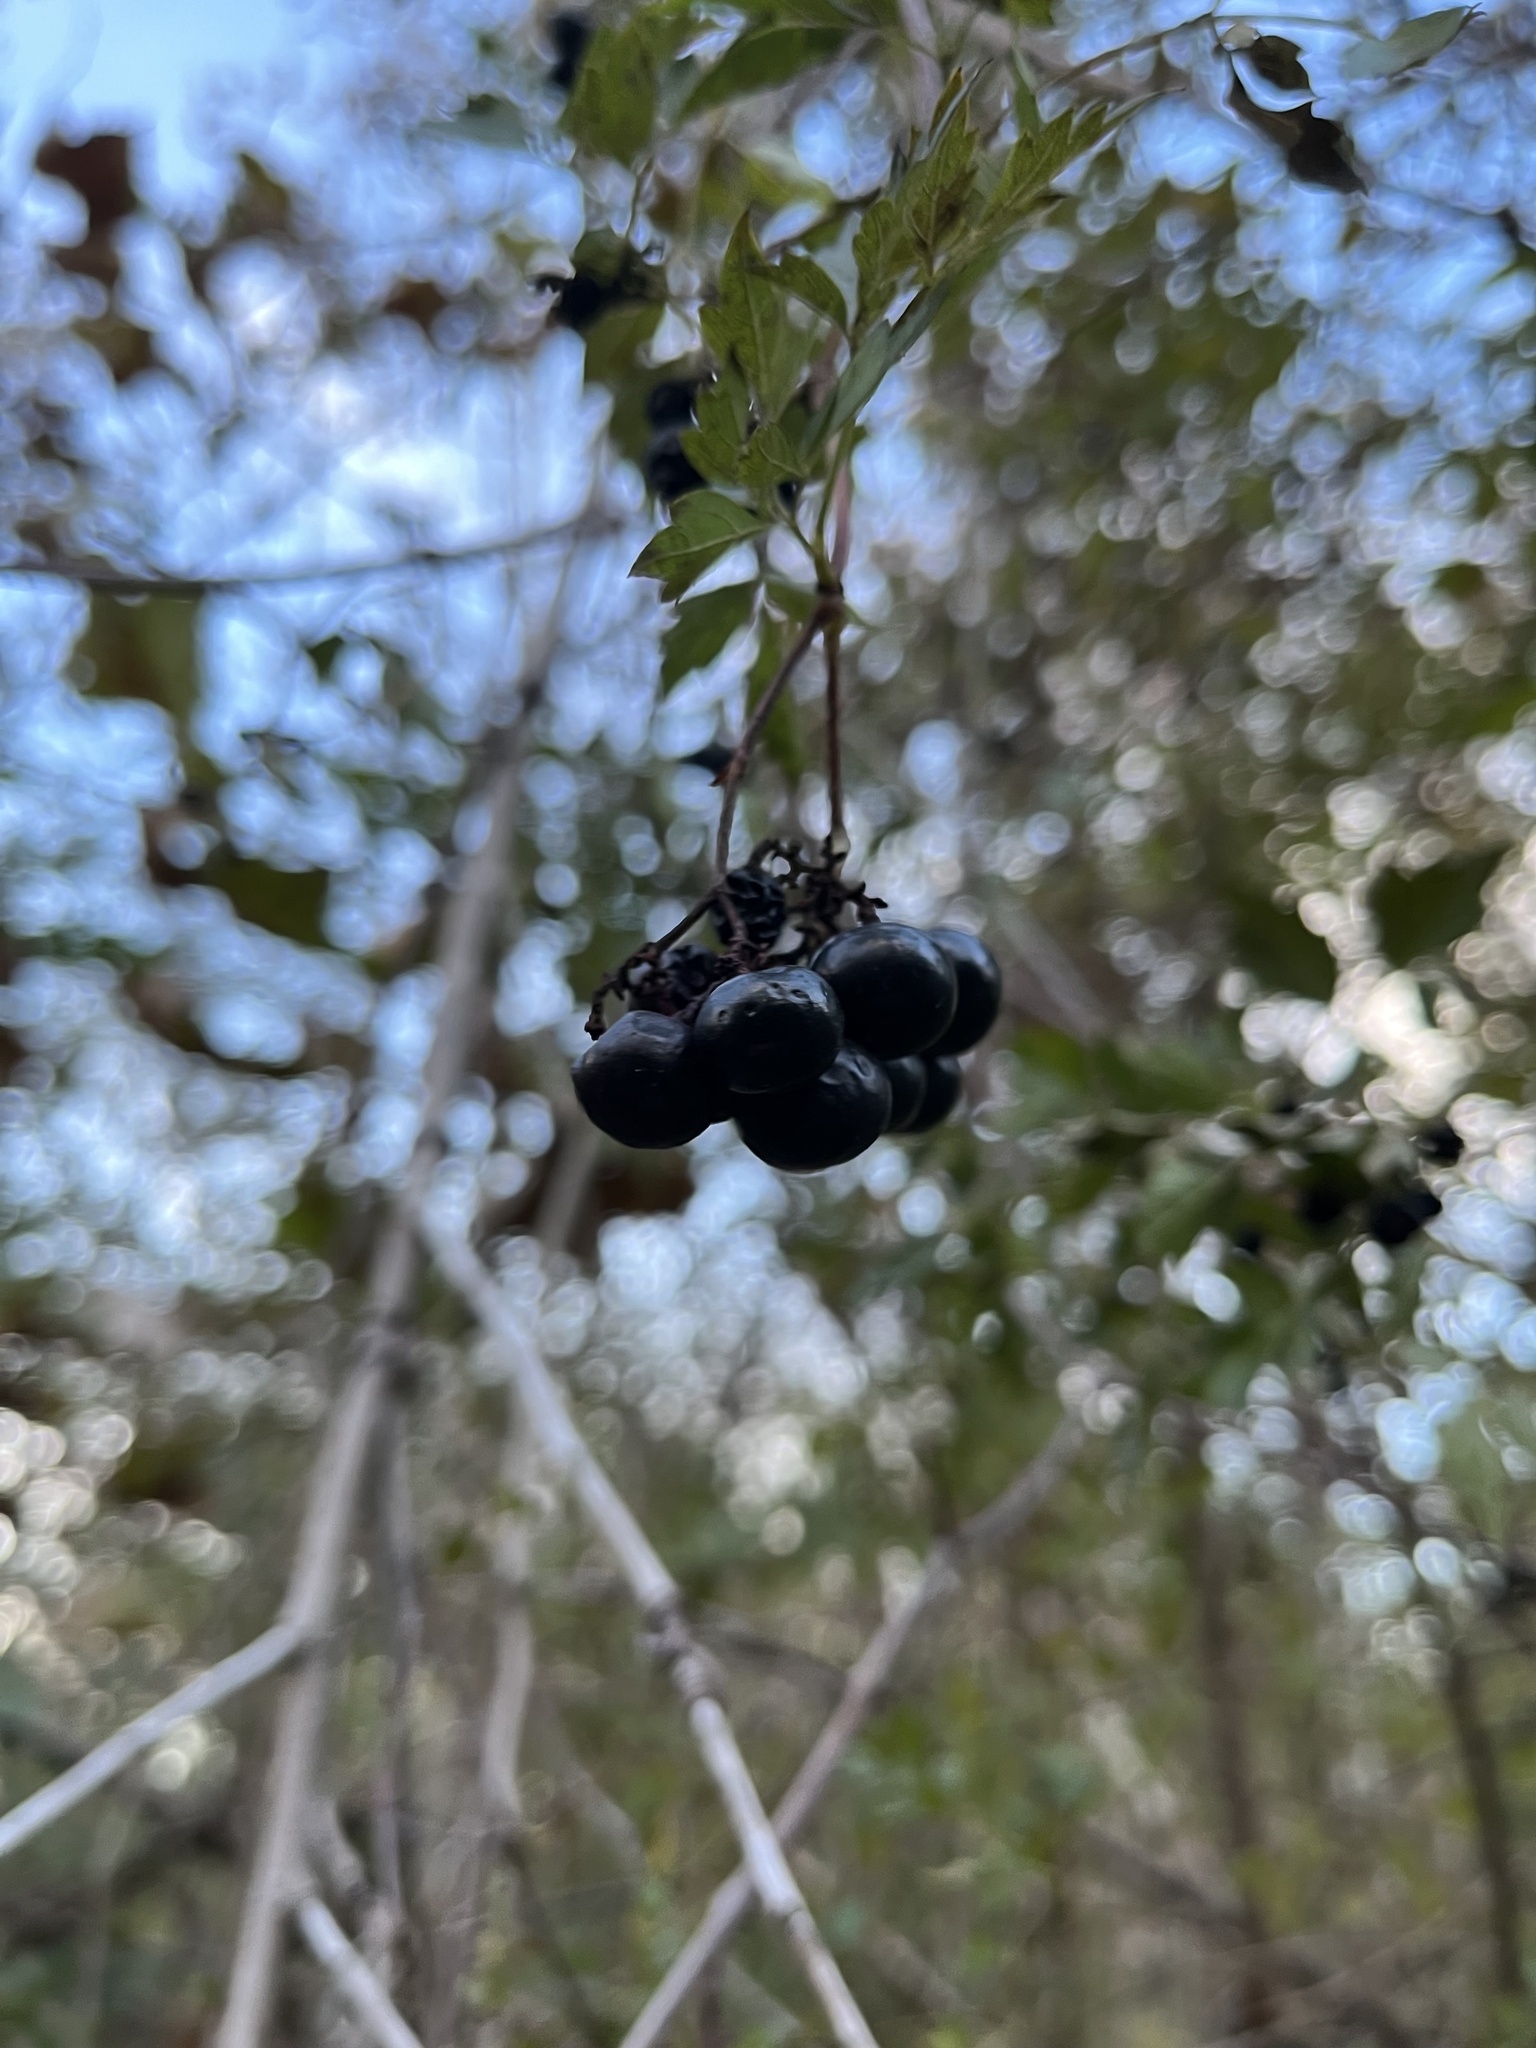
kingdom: Plantae
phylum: Tracheophyta
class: Magnoliopsida
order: Vitales
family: Vitaceae
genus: Nekemias
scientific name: Nekemias arborea
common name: Peppervine
